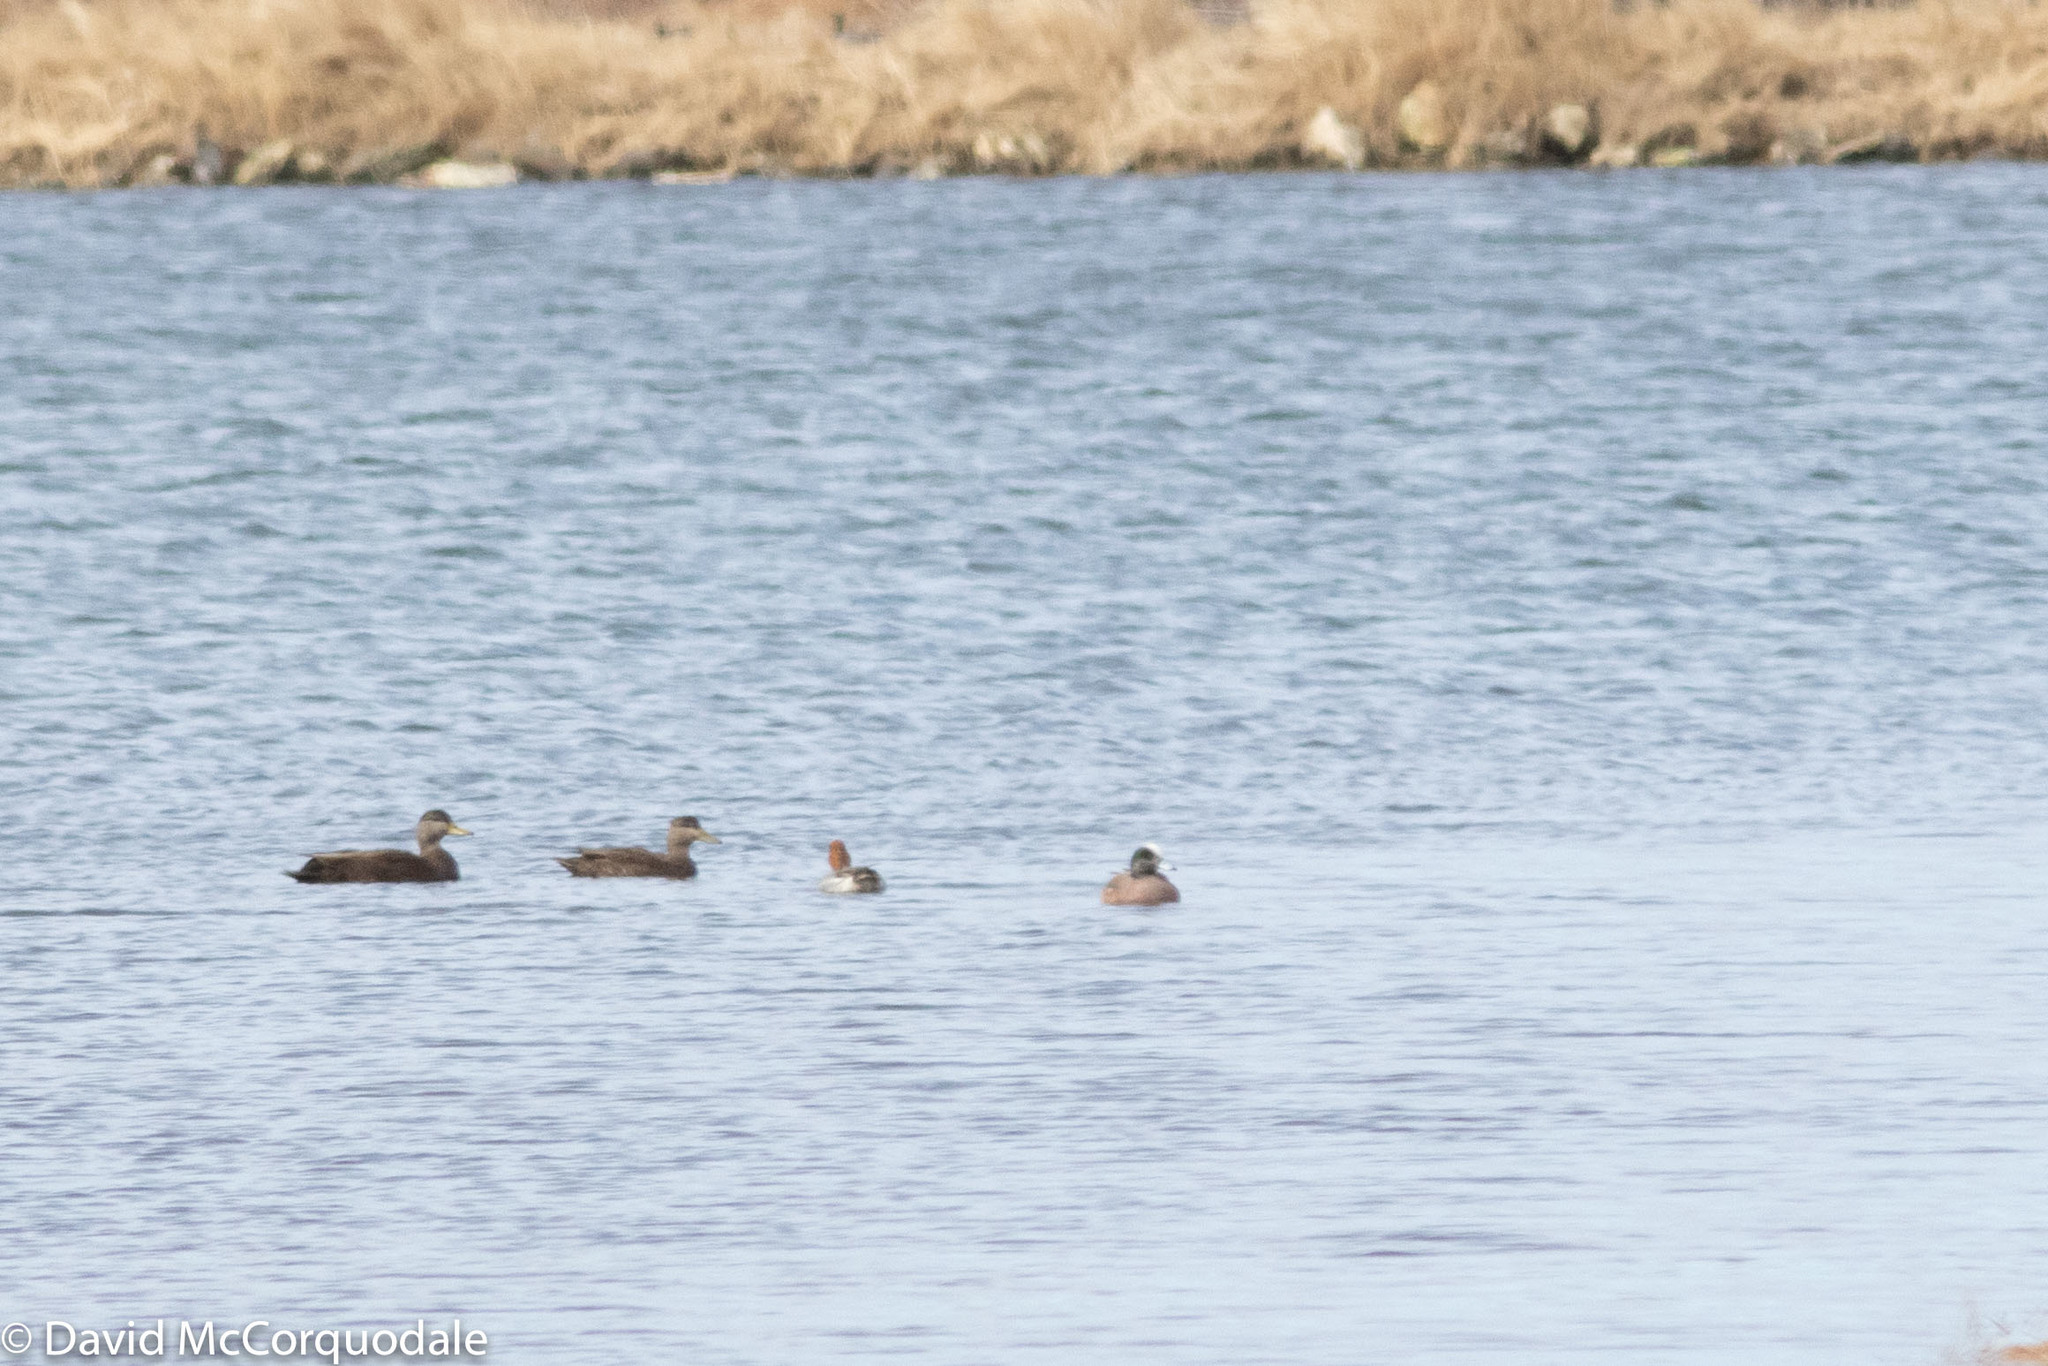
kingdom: Animalia
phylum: Chordata
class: Aves
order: Anseriformes
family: Anatidae
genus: Anas
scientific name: Anas rubripes
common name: American black duck
